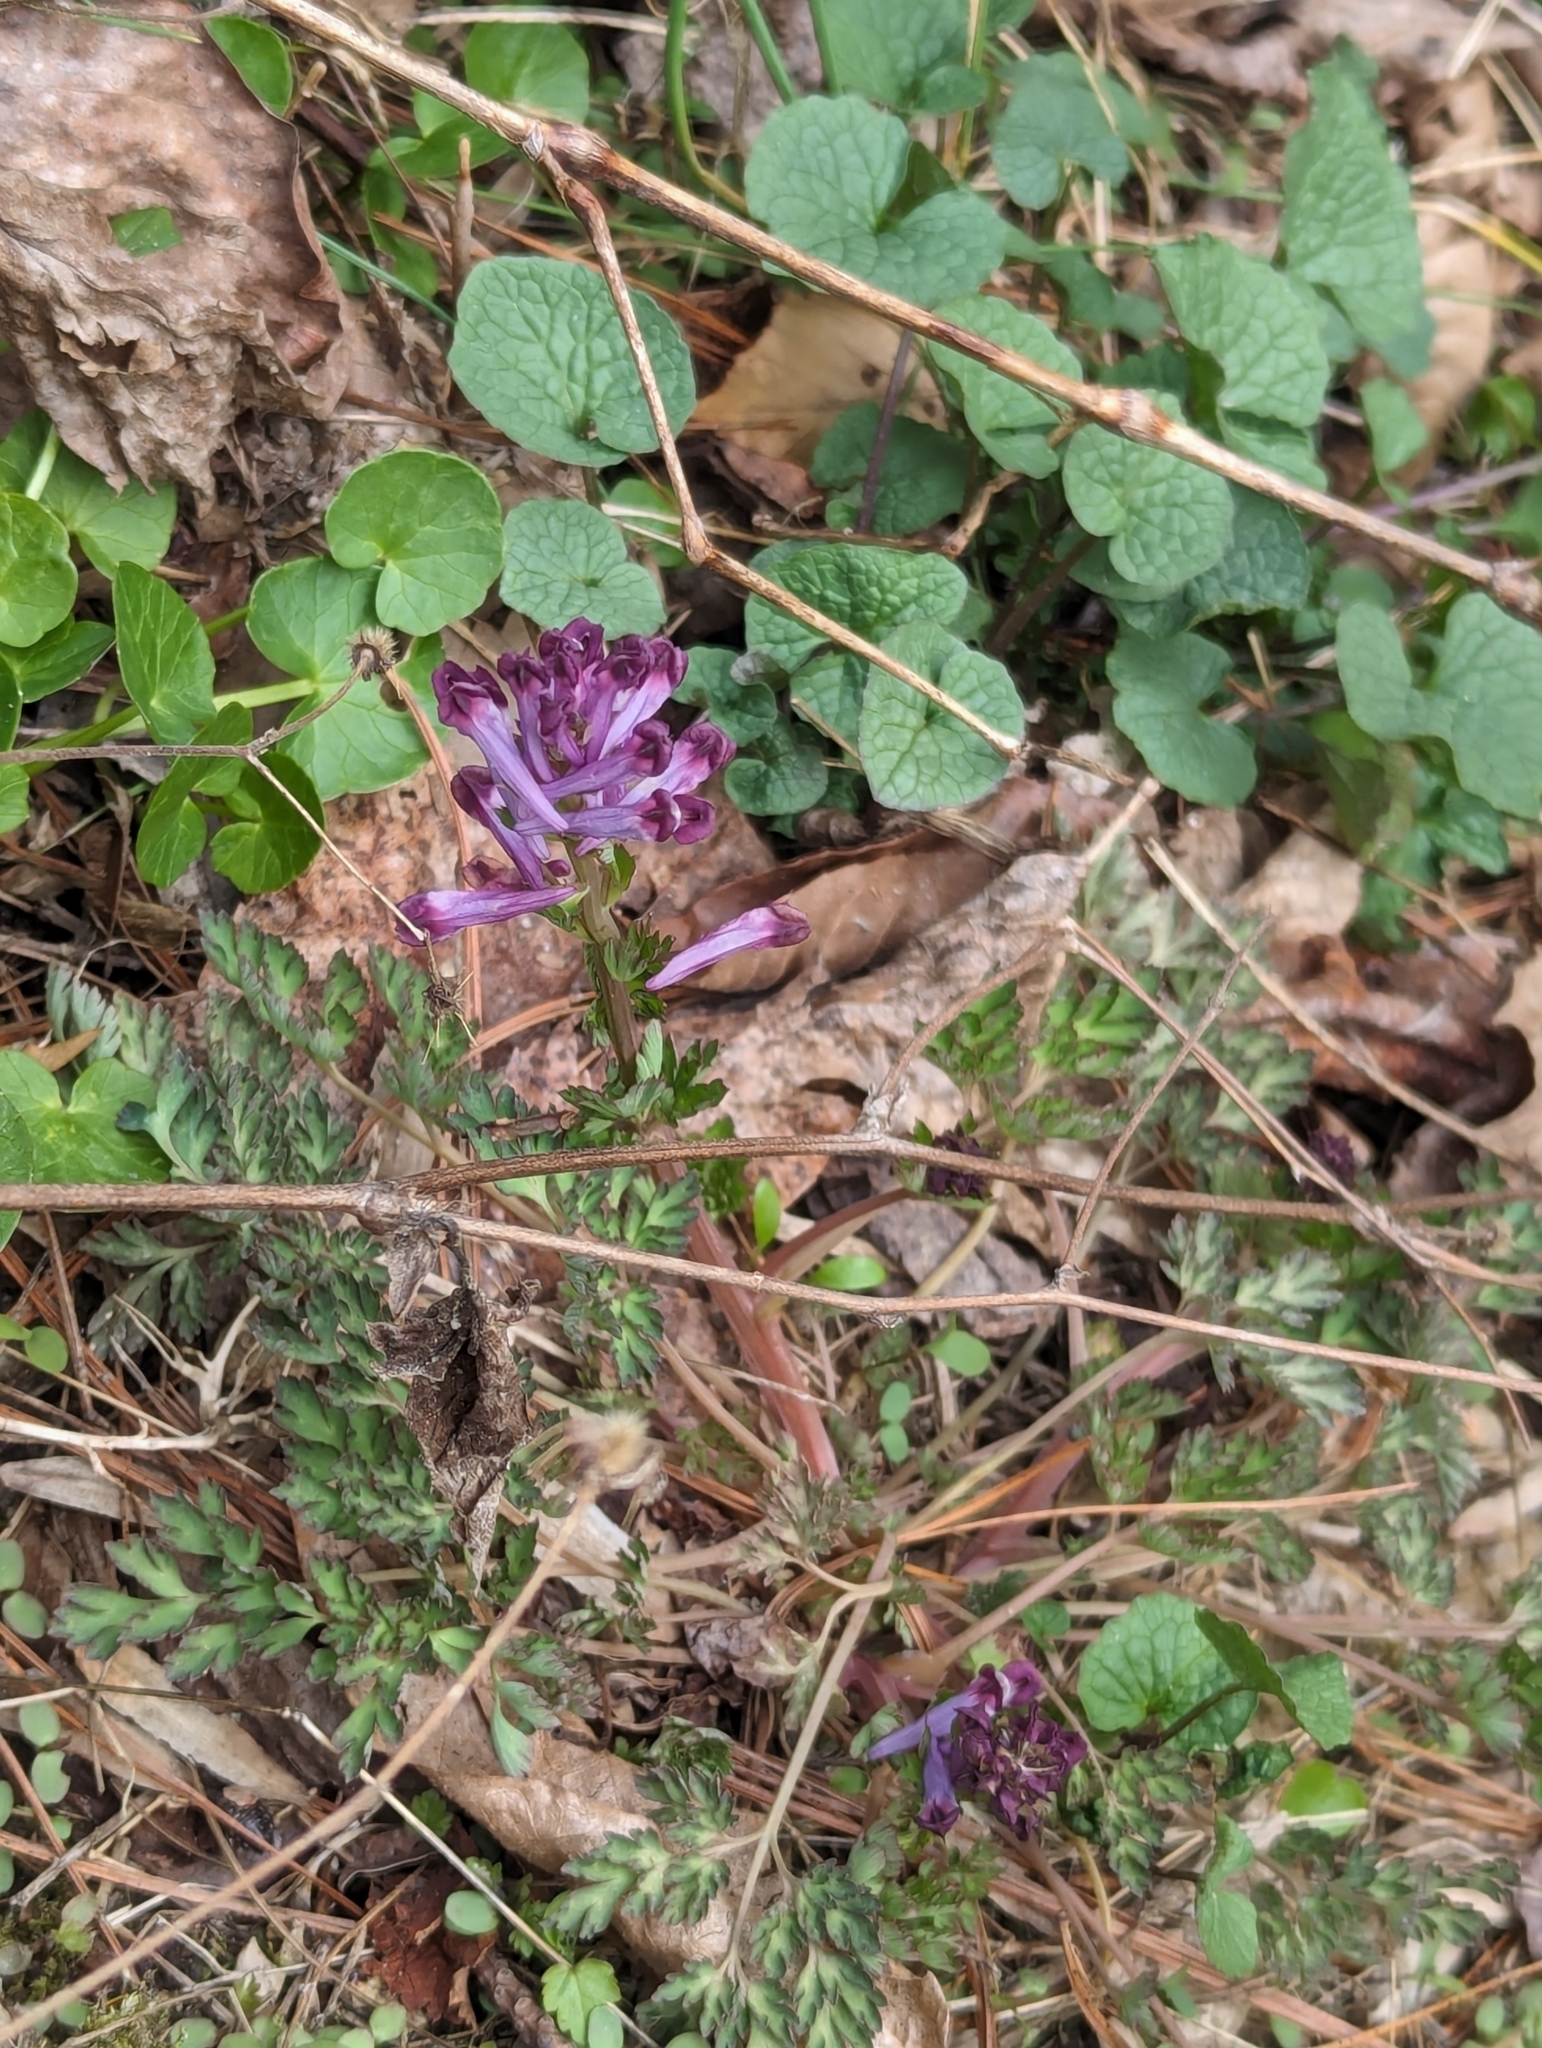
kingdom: Plantae
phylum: Tracheophyta
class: Magnoliopsida
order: Ranunculales
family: Papaveraceae
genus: Corydalis
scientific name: Corydalis incisa
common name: Incised fumewort
